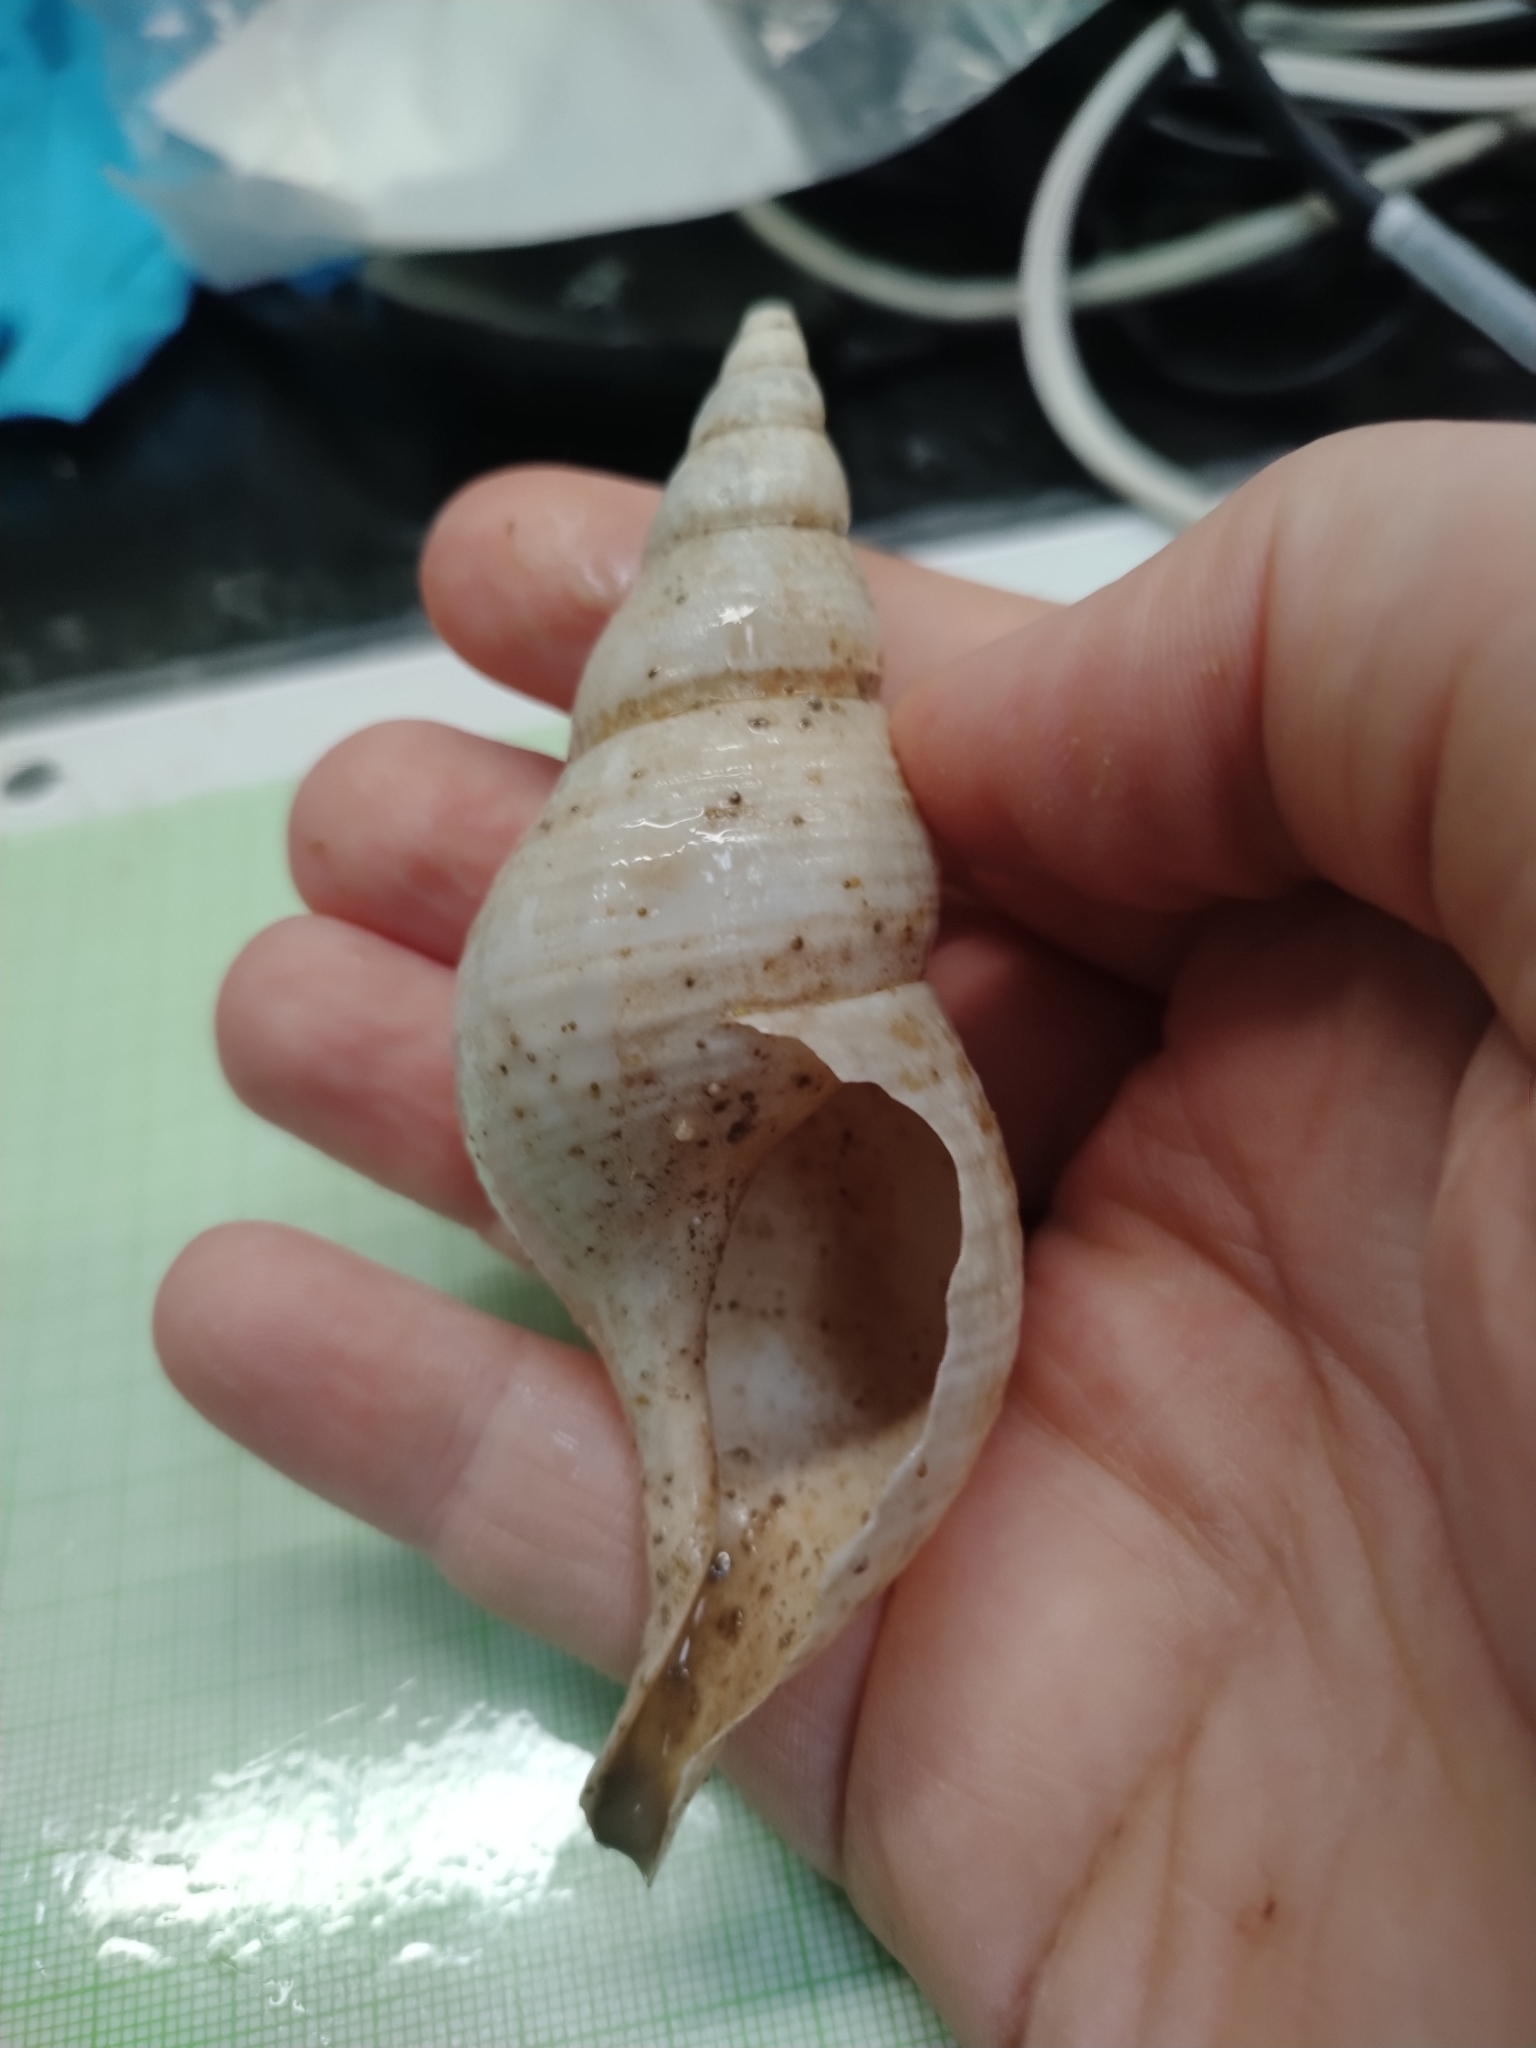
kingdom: Animalia
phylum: Mollusca
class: Gastropoda
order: Neogastropoda
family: Colidae
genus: Colus
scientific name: Colus islandicus
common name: Islandic colus
